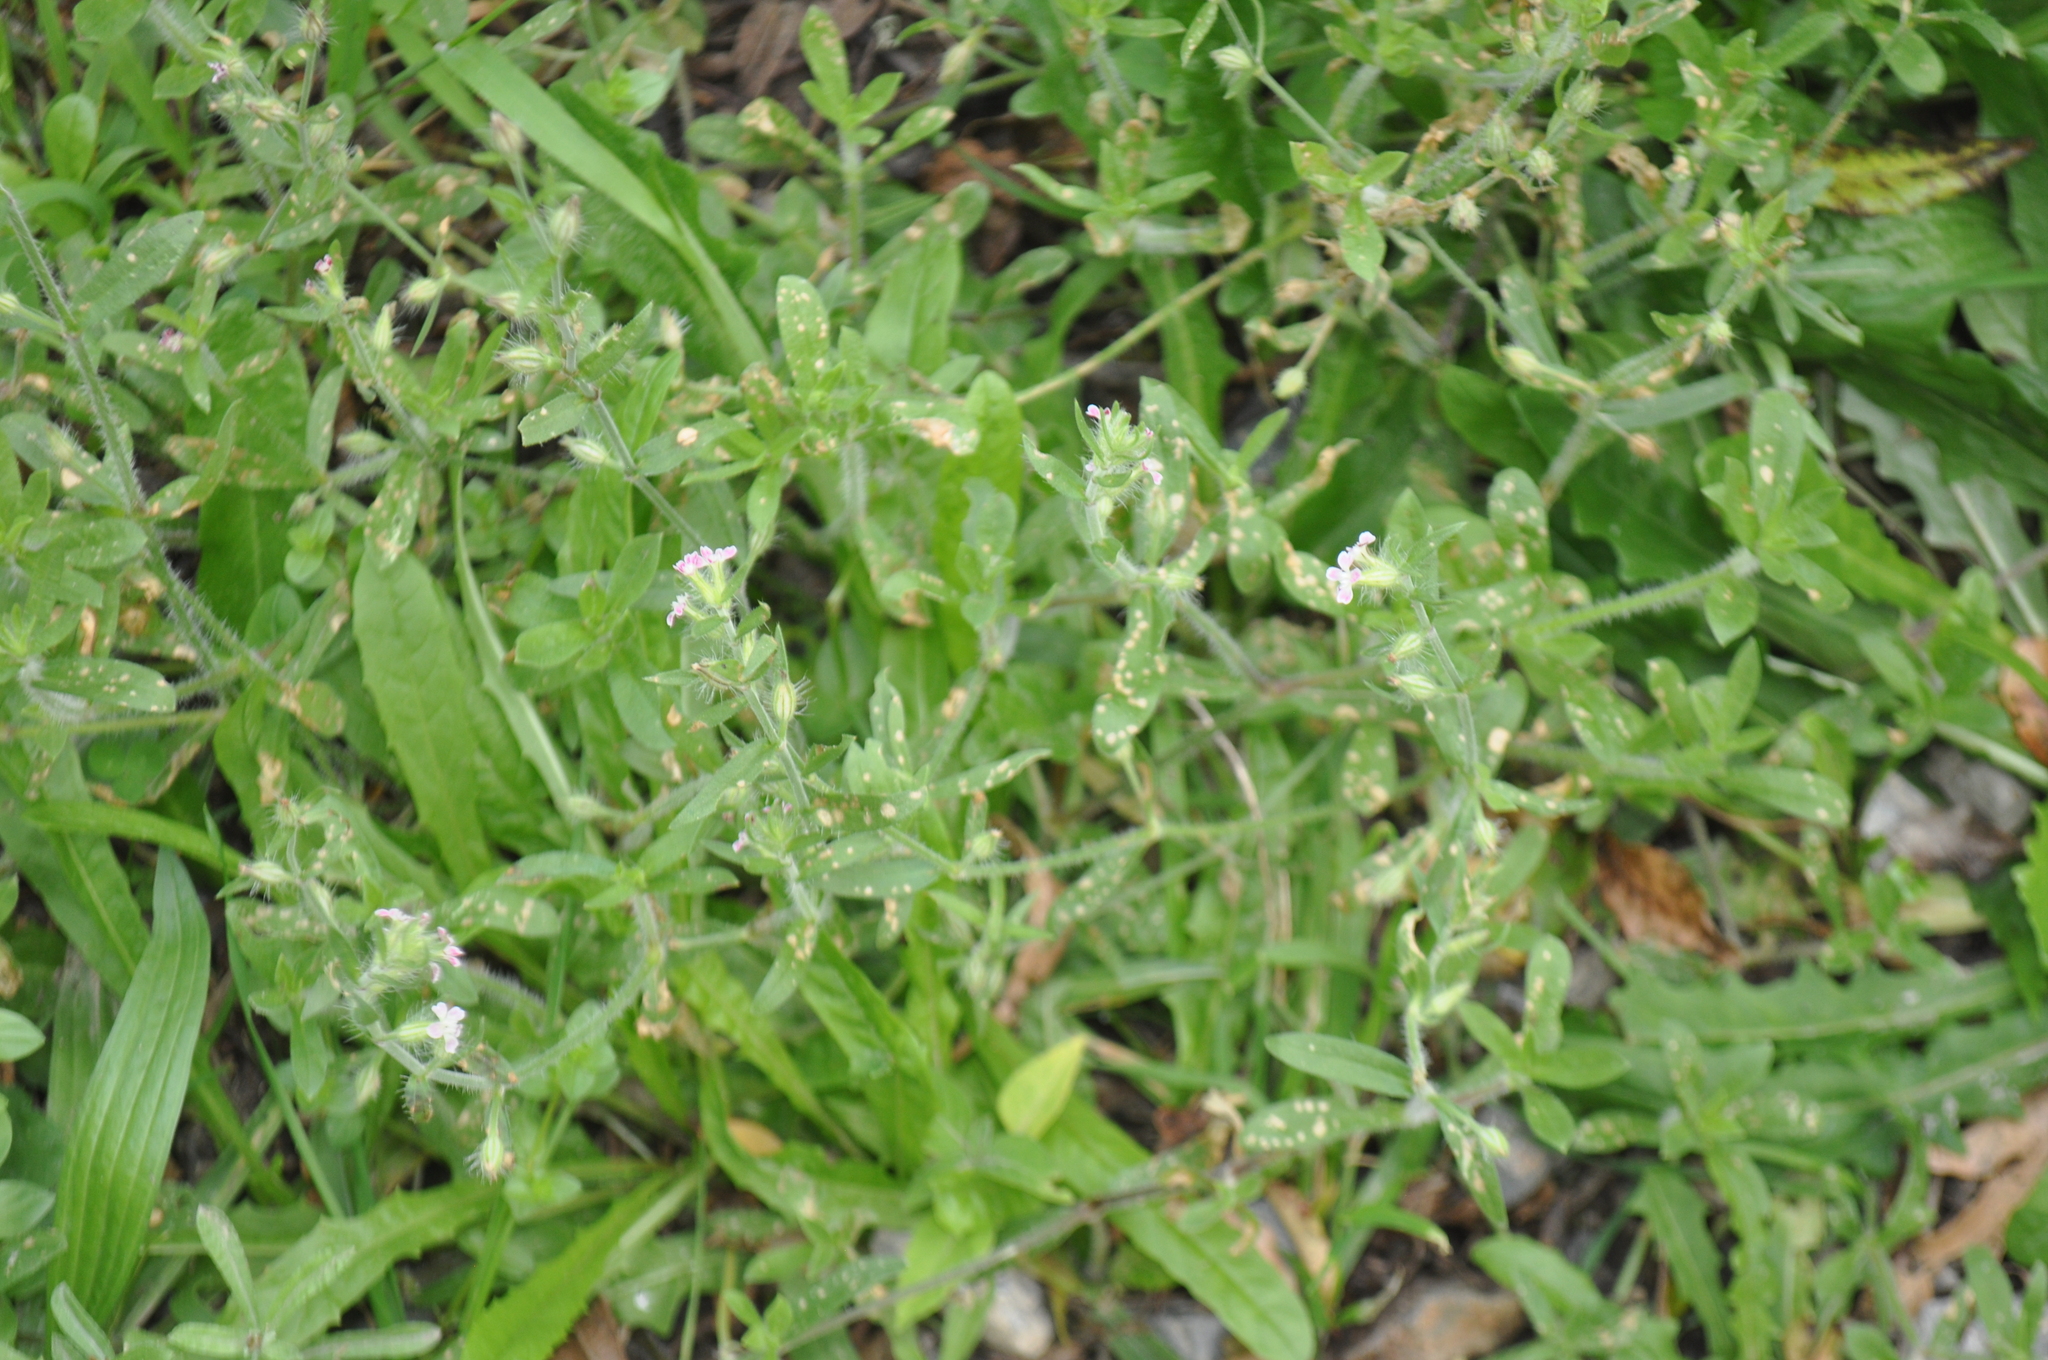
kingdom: Plantae
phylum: Tracheophyta
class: Magnoliopsida
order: Caryophyllales
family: Caryophyllaceae
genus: Silene
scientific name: Silene gallica
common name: Small-flowered catchfly
